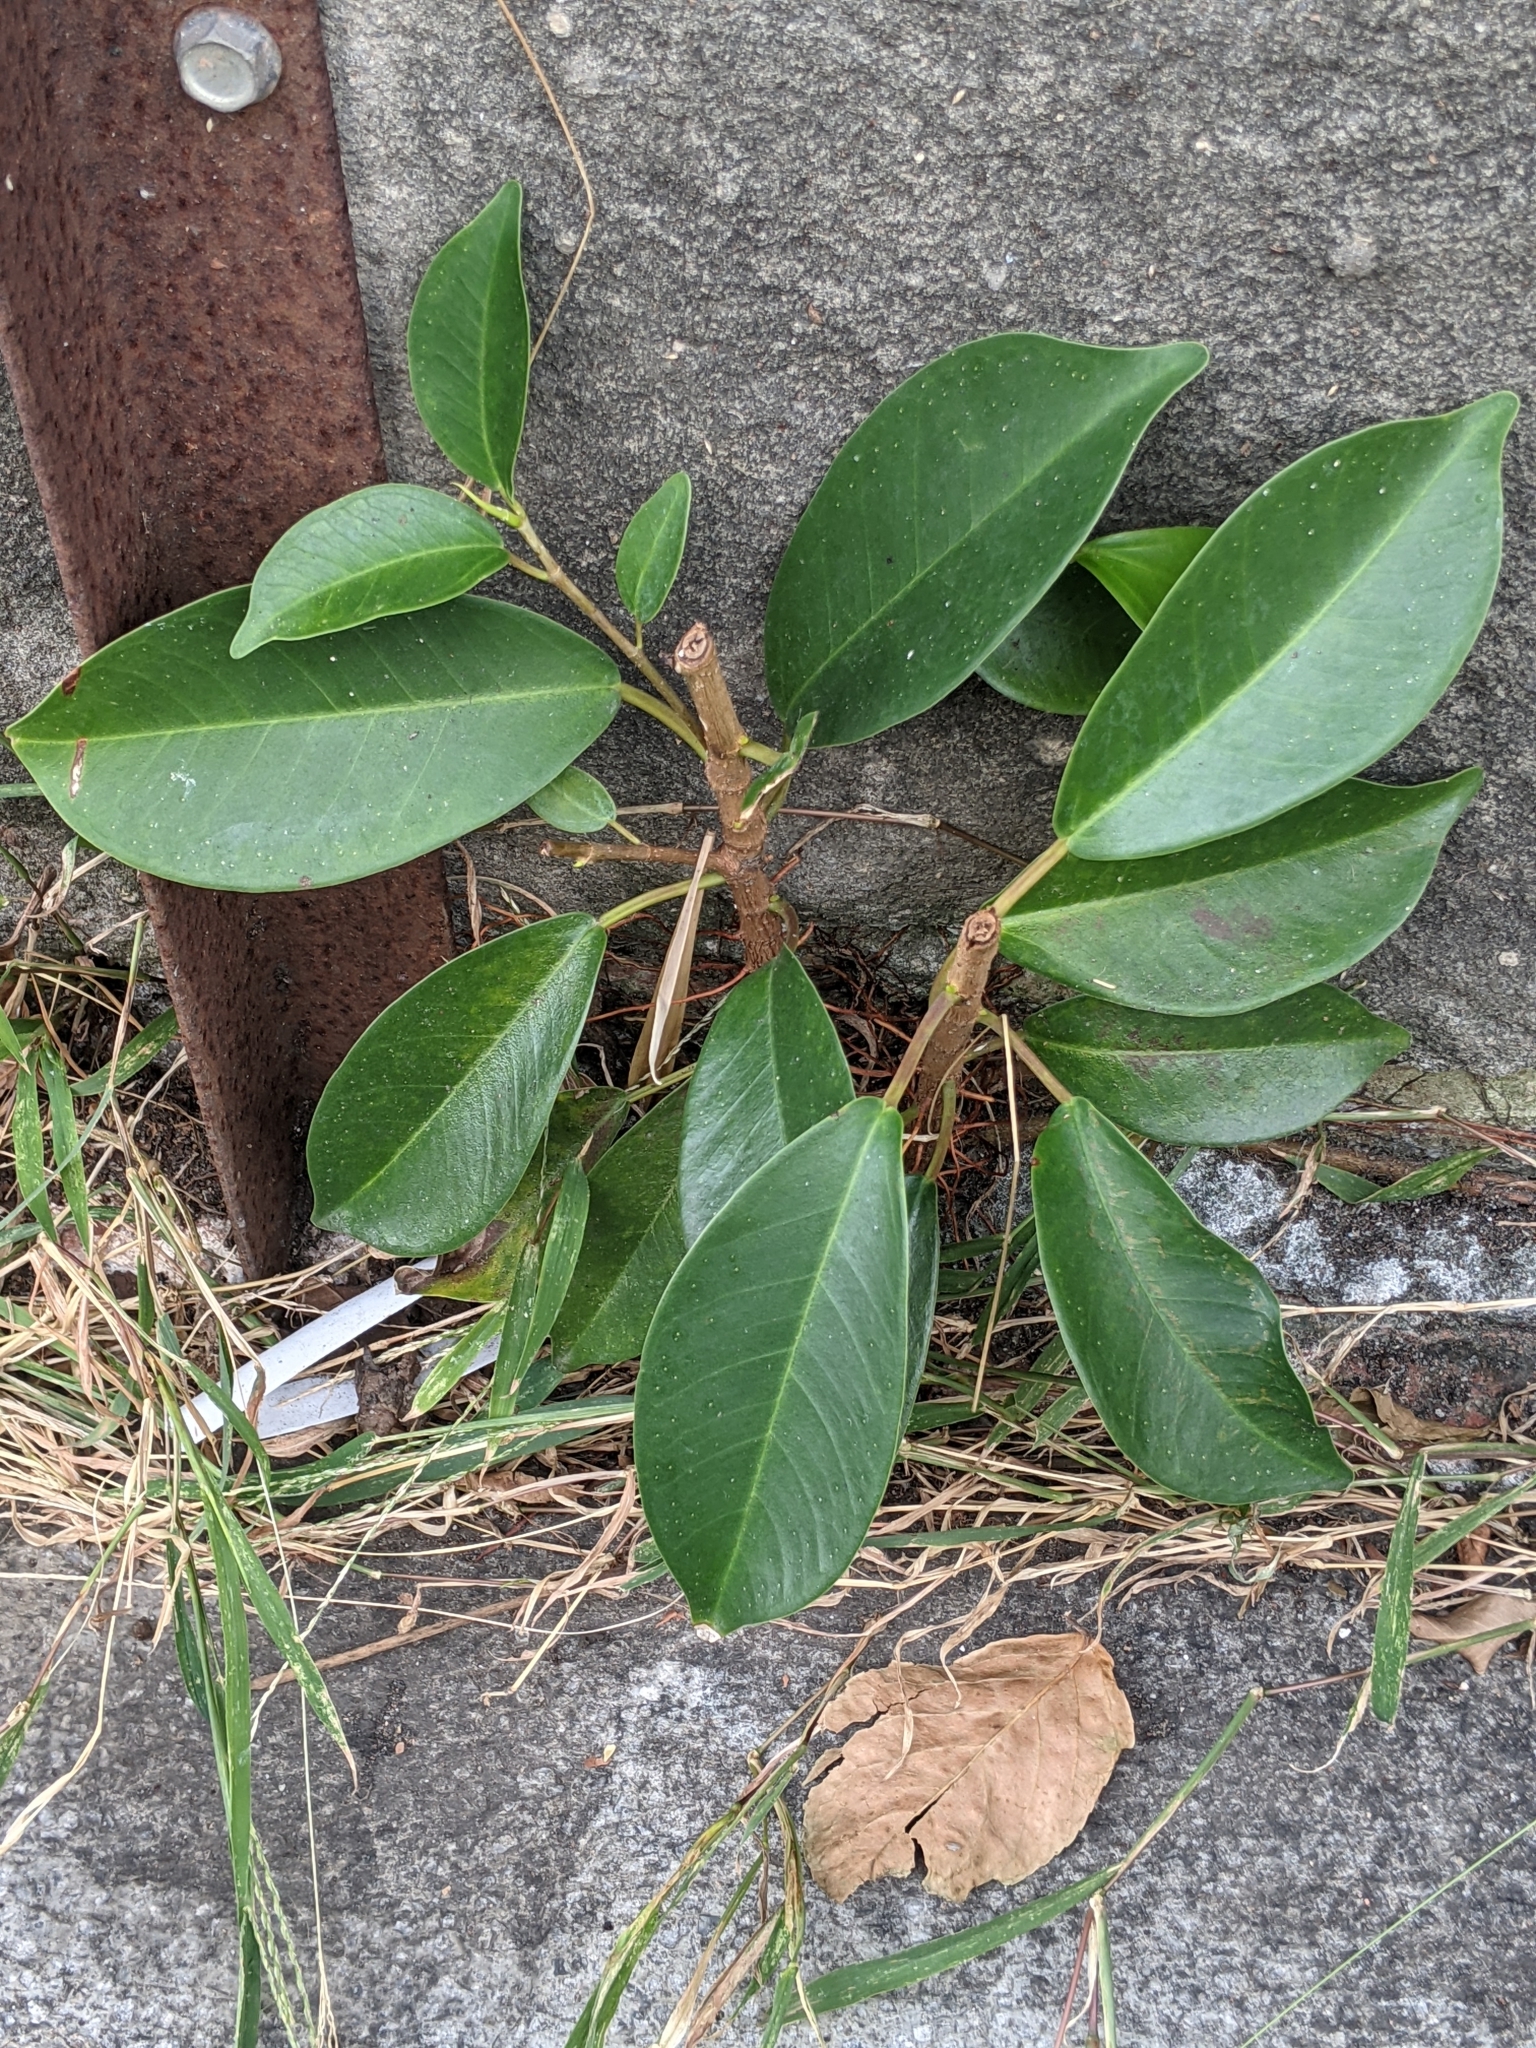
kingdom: Plantae
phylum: Tracheophyta
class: Magnoliopsida
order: Rosales
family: Moraceae
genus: Ficus
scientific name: Ficus microcarpa
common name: Chinese banyan
